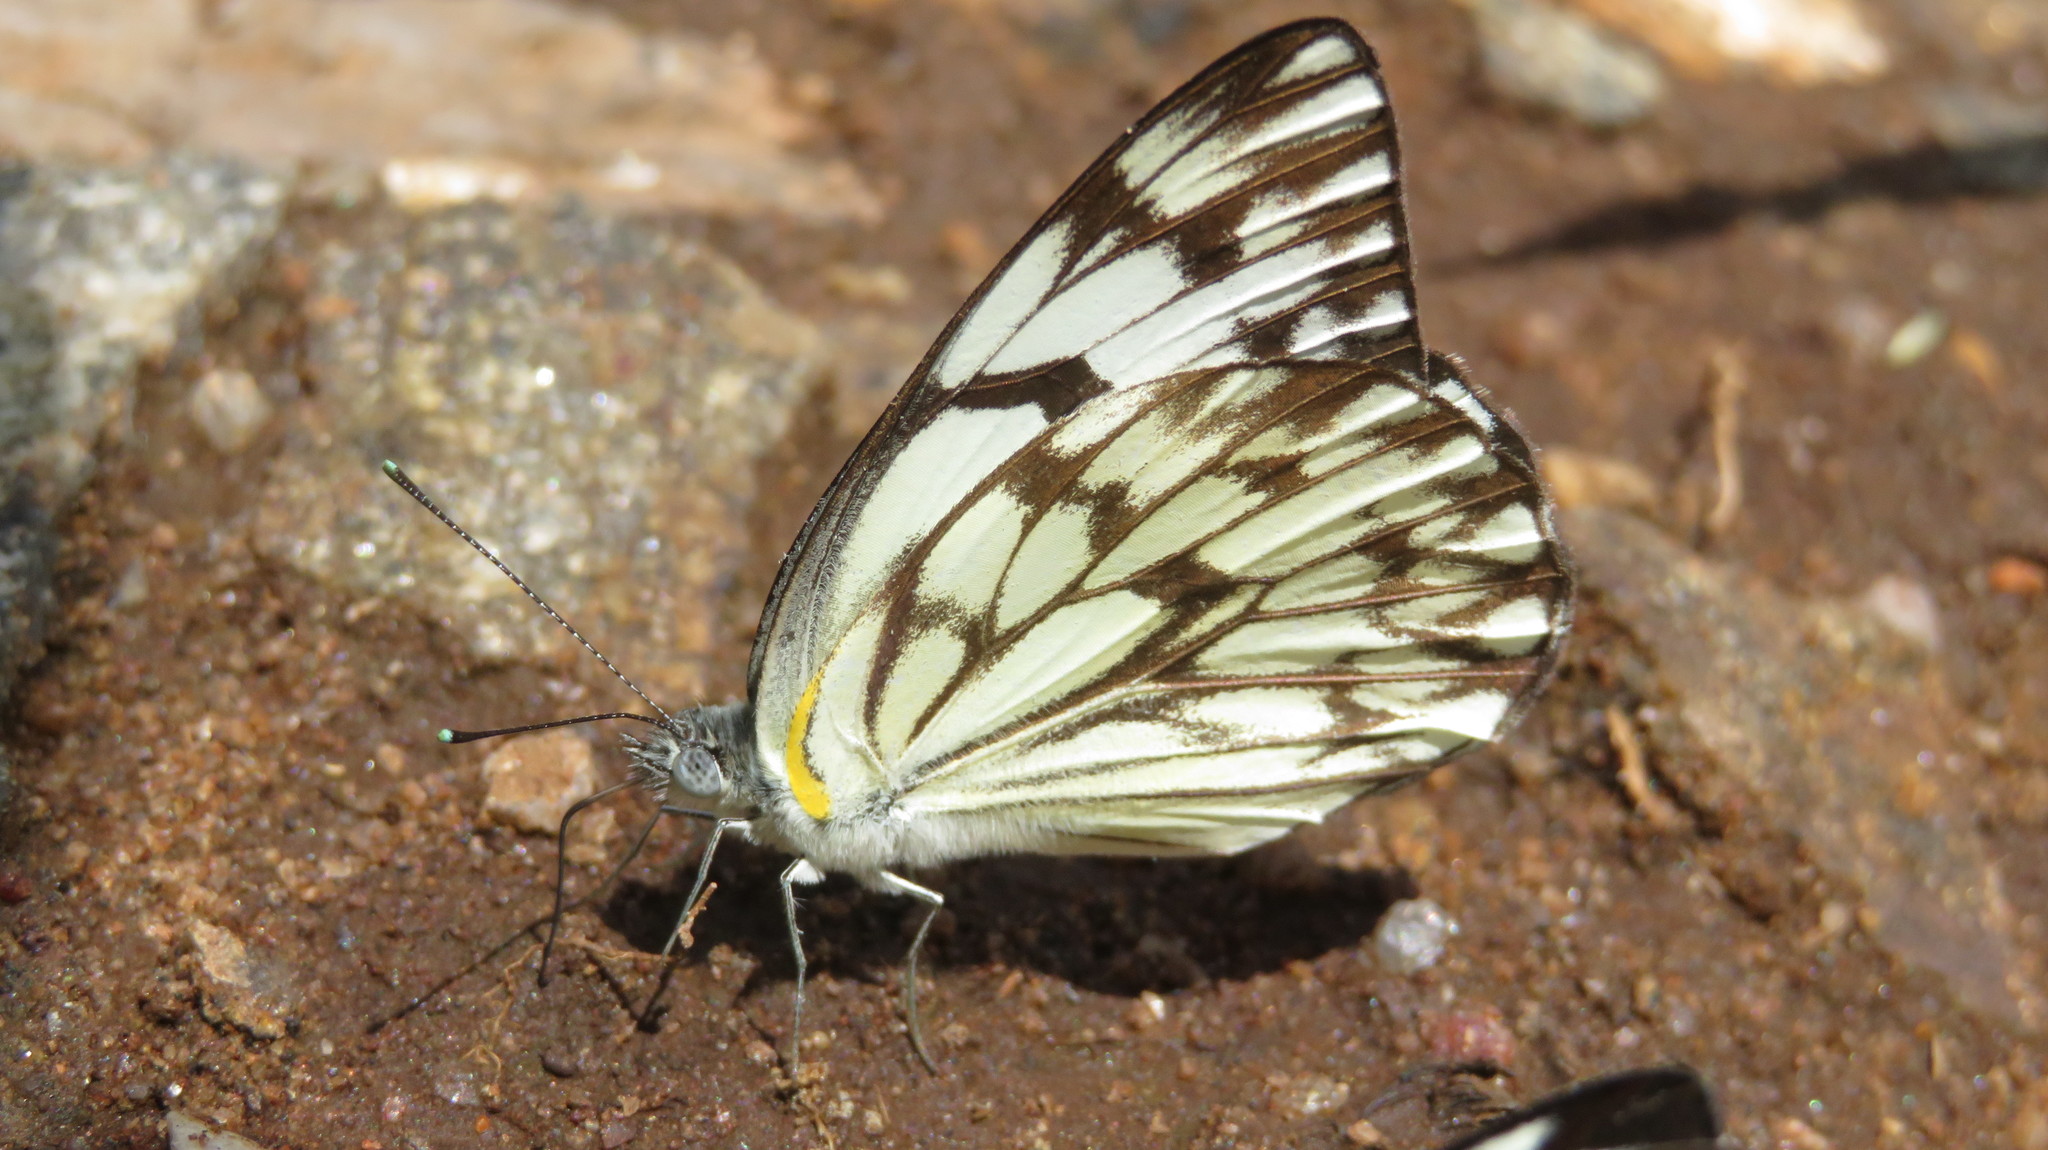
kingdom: Animalia
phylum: Arthropoda
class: Insecta
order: Lepidoptera
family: Pieridae
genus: Belenois
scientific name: Belenois gidica
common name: Pointed caper white
